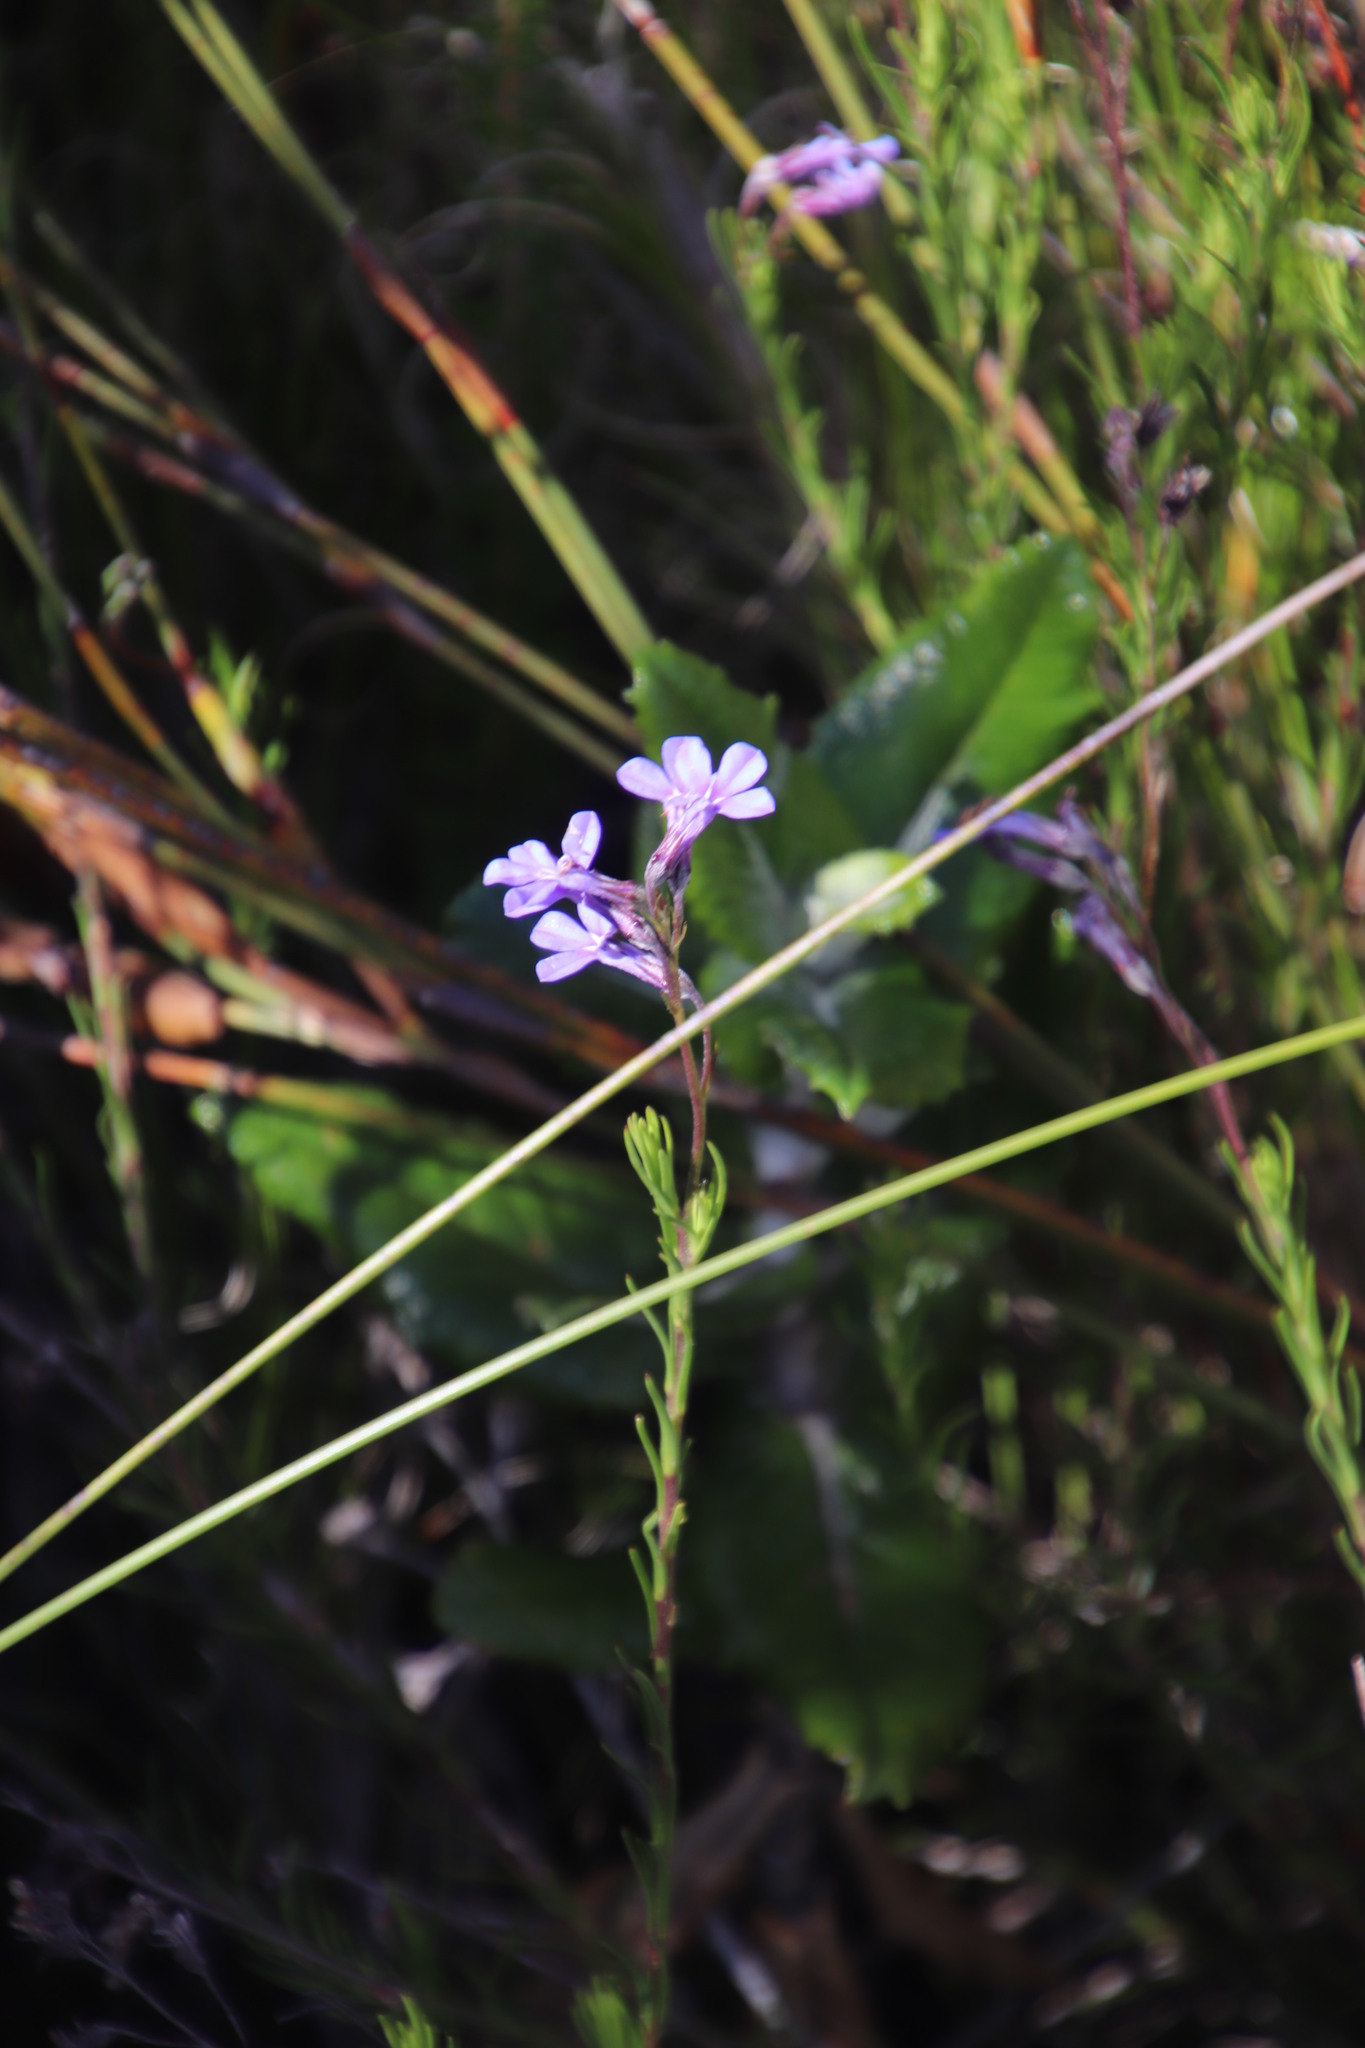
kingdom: Plantae
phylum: Tracheophyta
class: Magnoliopsida
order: Asterales
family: Campanulaceae
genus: Lobelia
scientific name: Lobelia pinifolia
